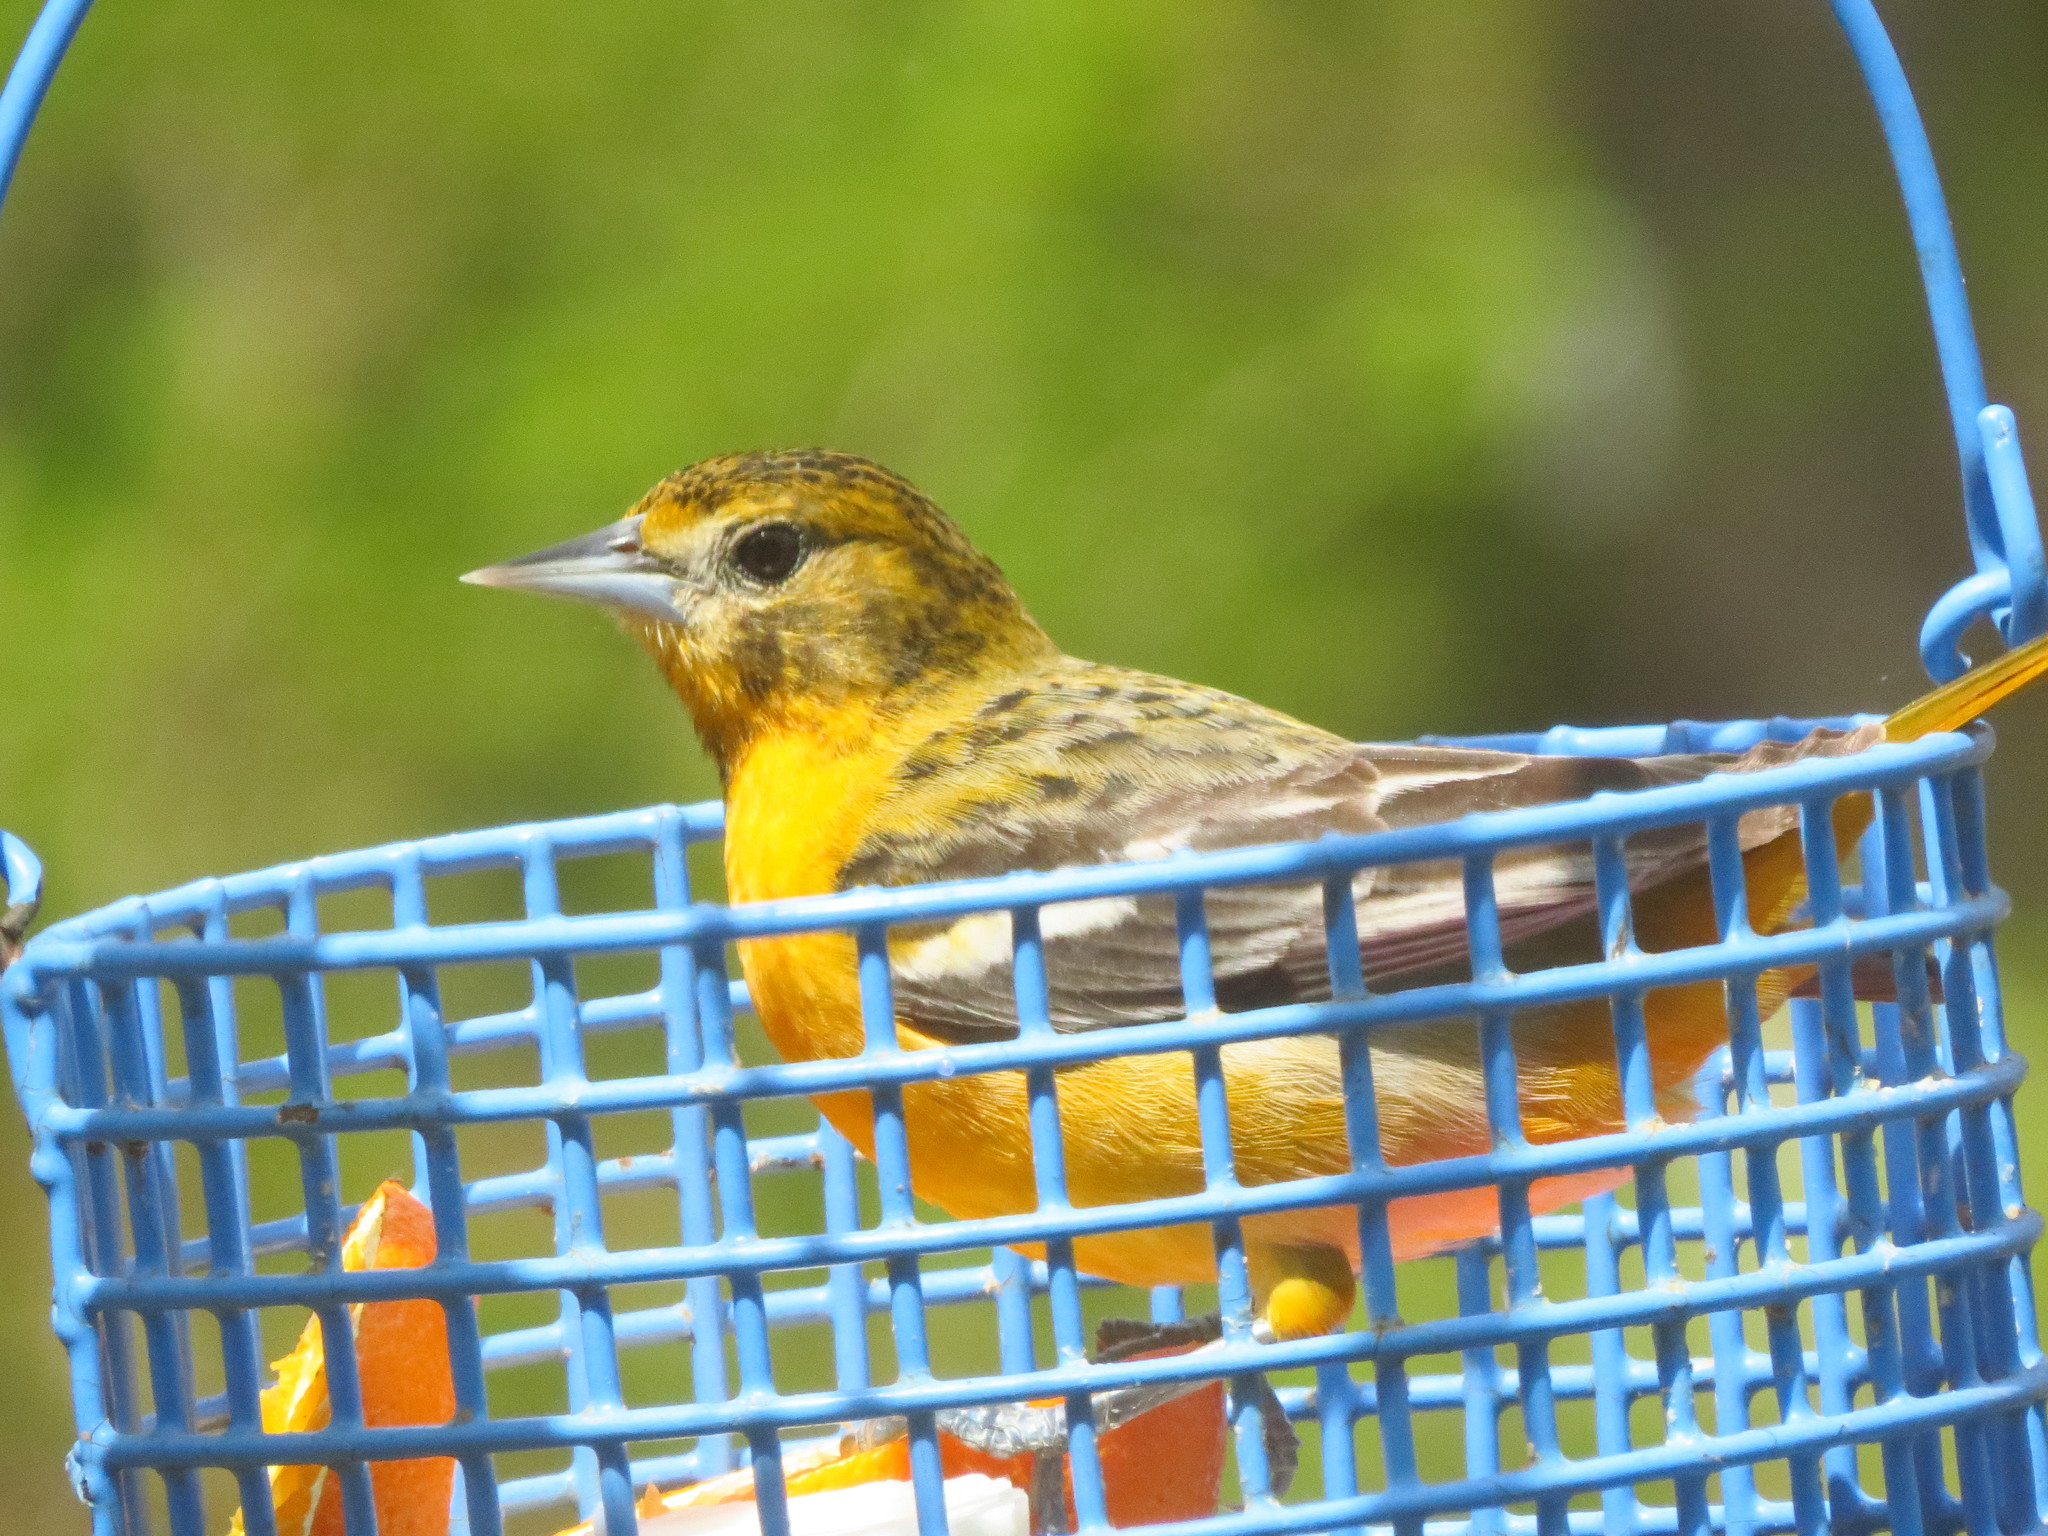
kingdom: Animalia
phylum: Chordata
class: Aves
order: Passeriformes
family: Icteridae
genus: Icterus
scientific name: Icterus galbula
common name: Baltimore oriole
